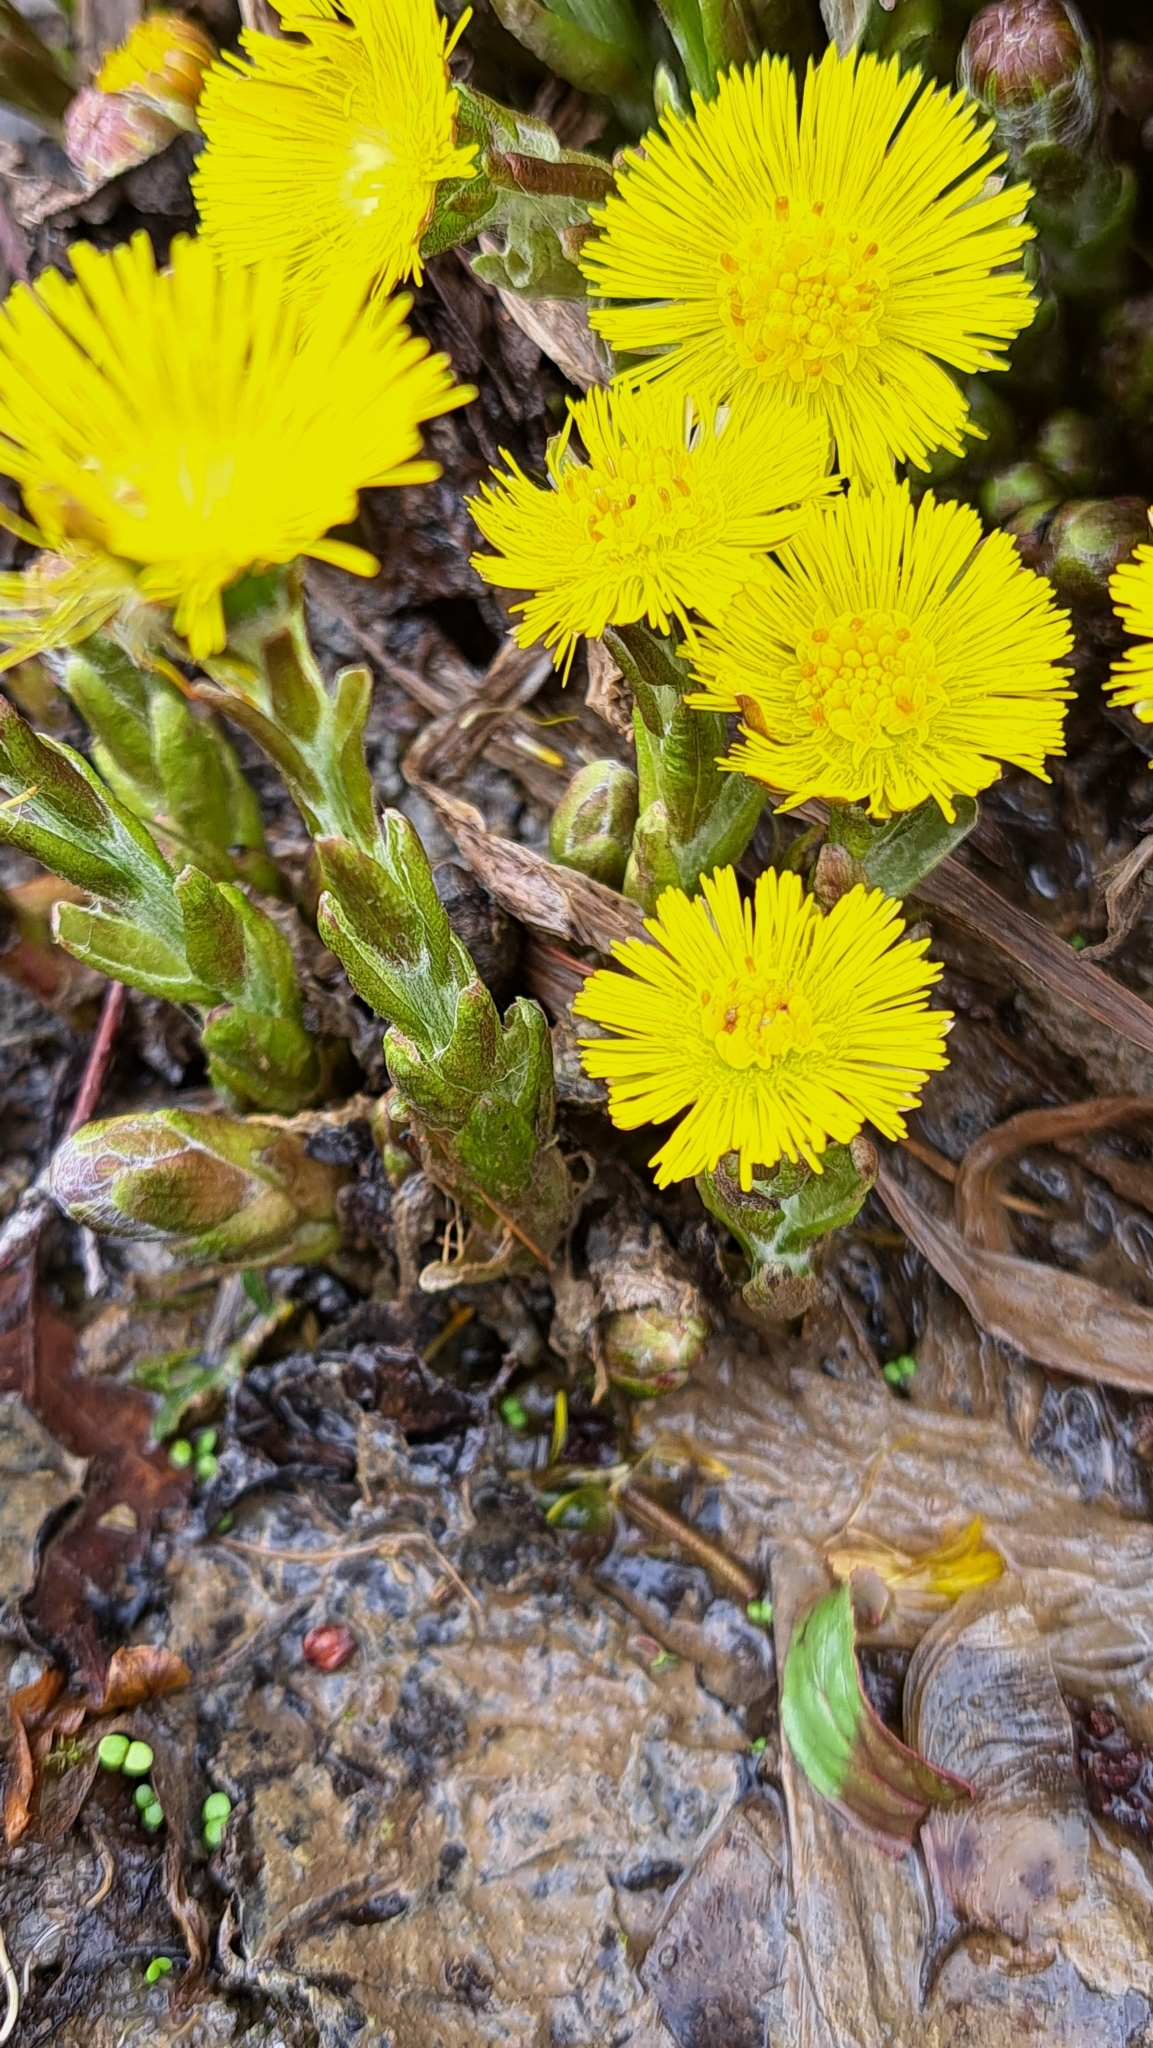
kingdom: Plantae
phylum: Tracheophyta
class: Magnoliopsida
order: Asterales
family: Asteraceae
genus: Tussilago
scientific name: Tussilago farfara
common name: Coltsfoot
